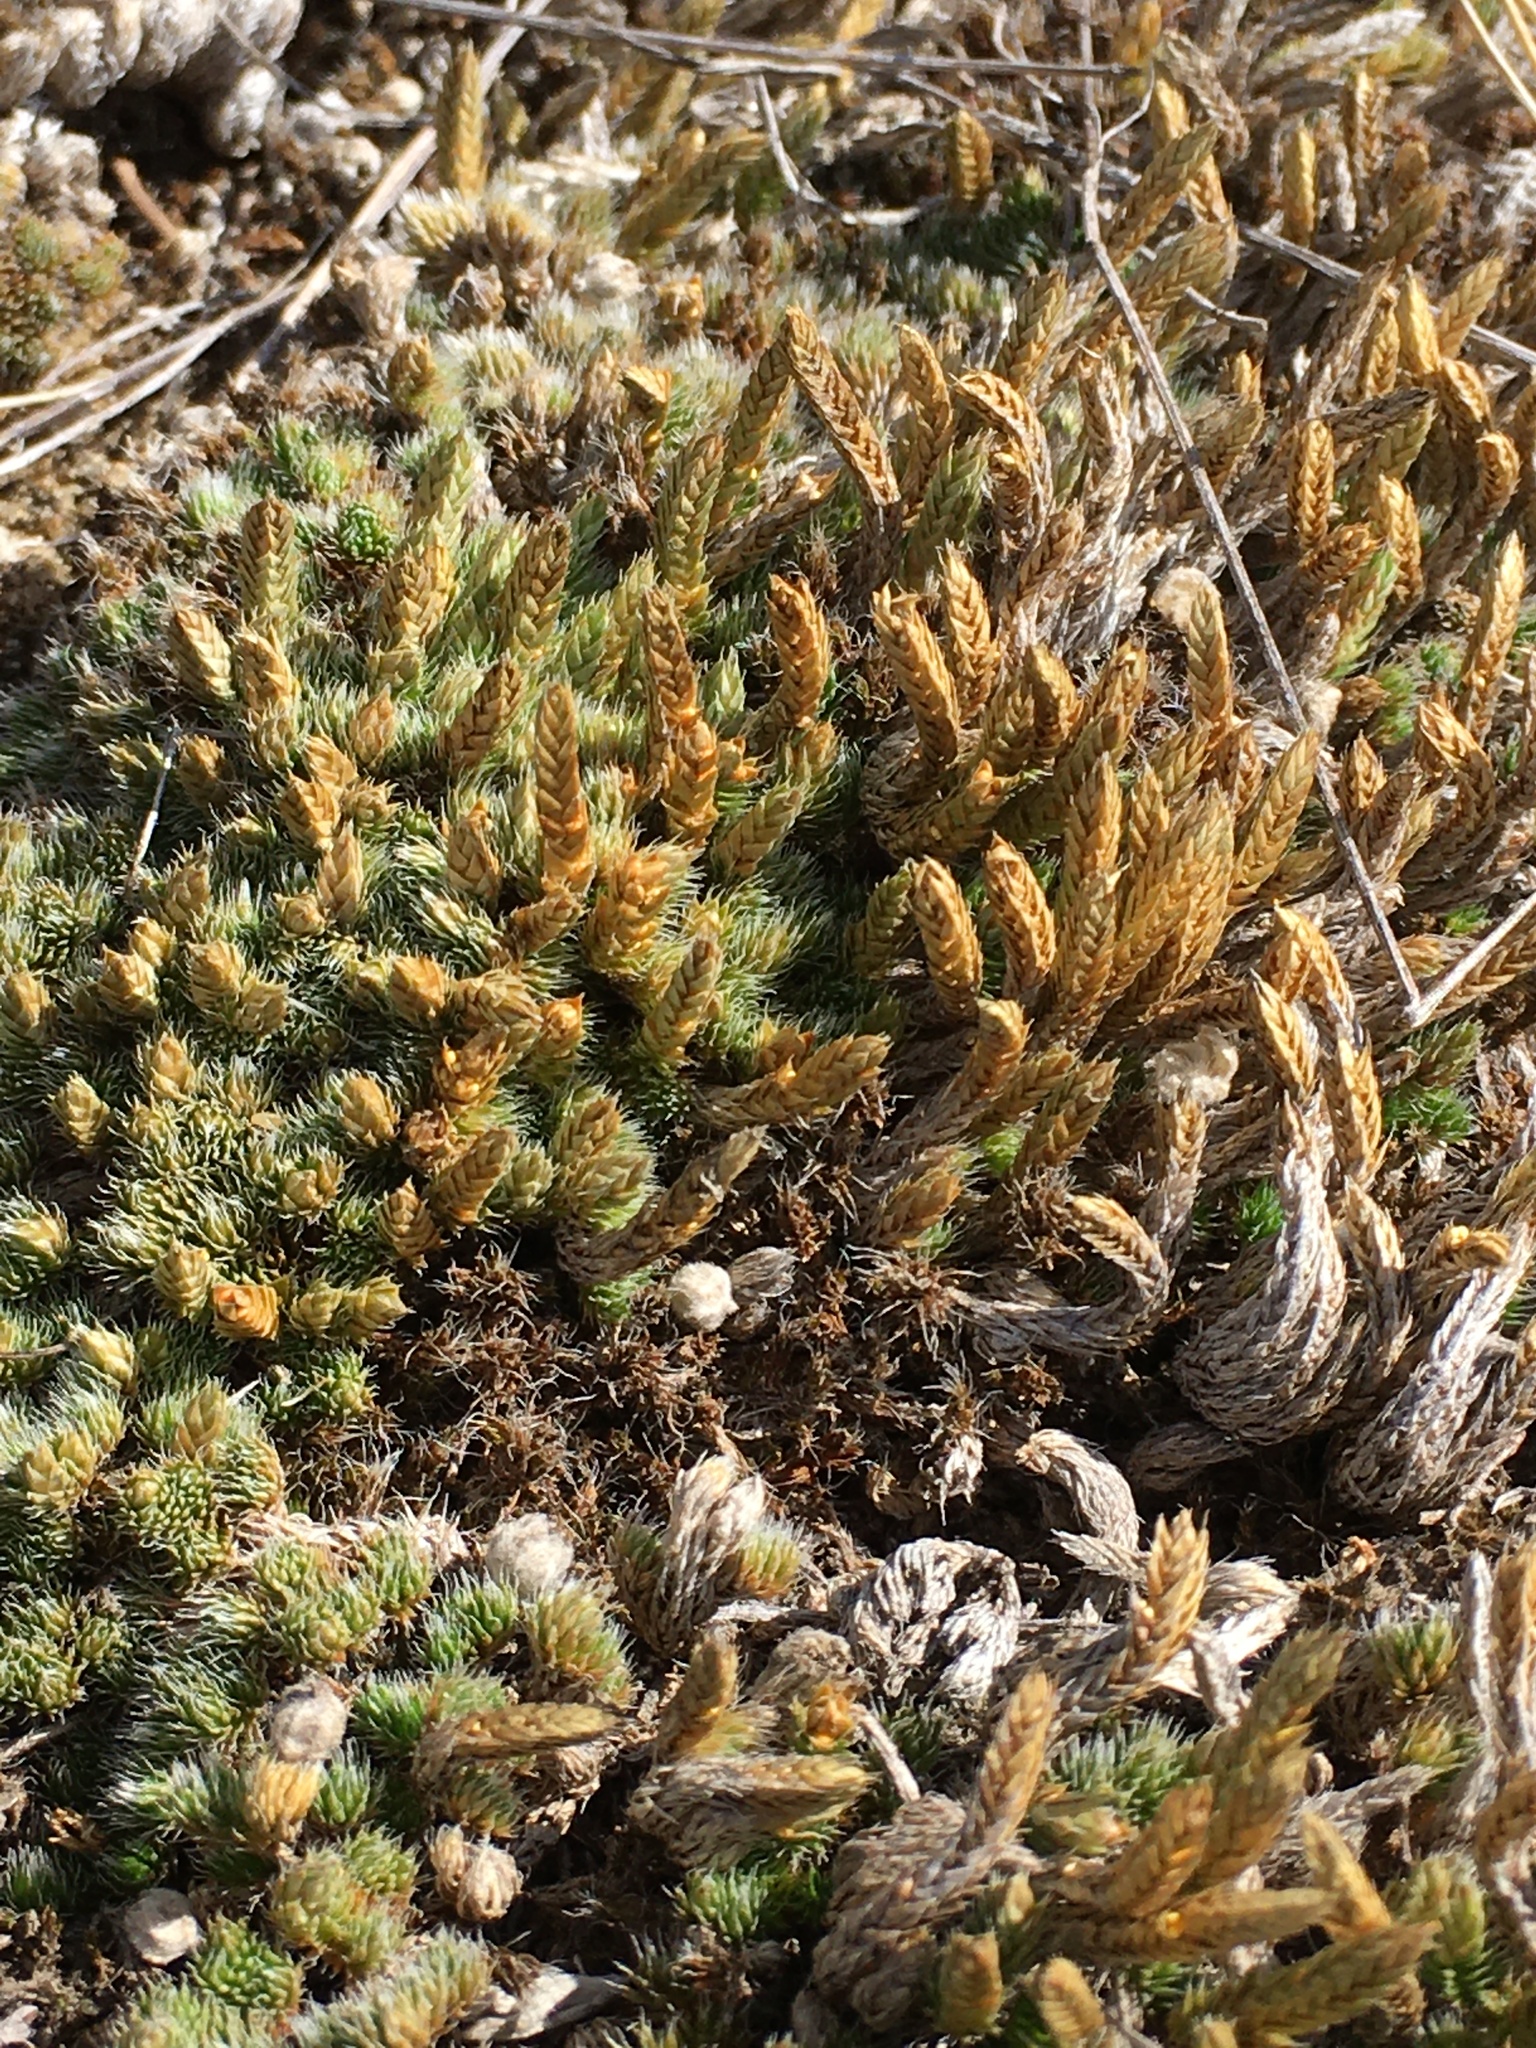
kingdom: Plantae
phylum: Tracheophyta
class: Lycopodiopsida
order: Selaginellales
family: Selaginellaceae
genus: Selaginella
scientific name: Selaginella densa
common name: Mountain spike-moss
